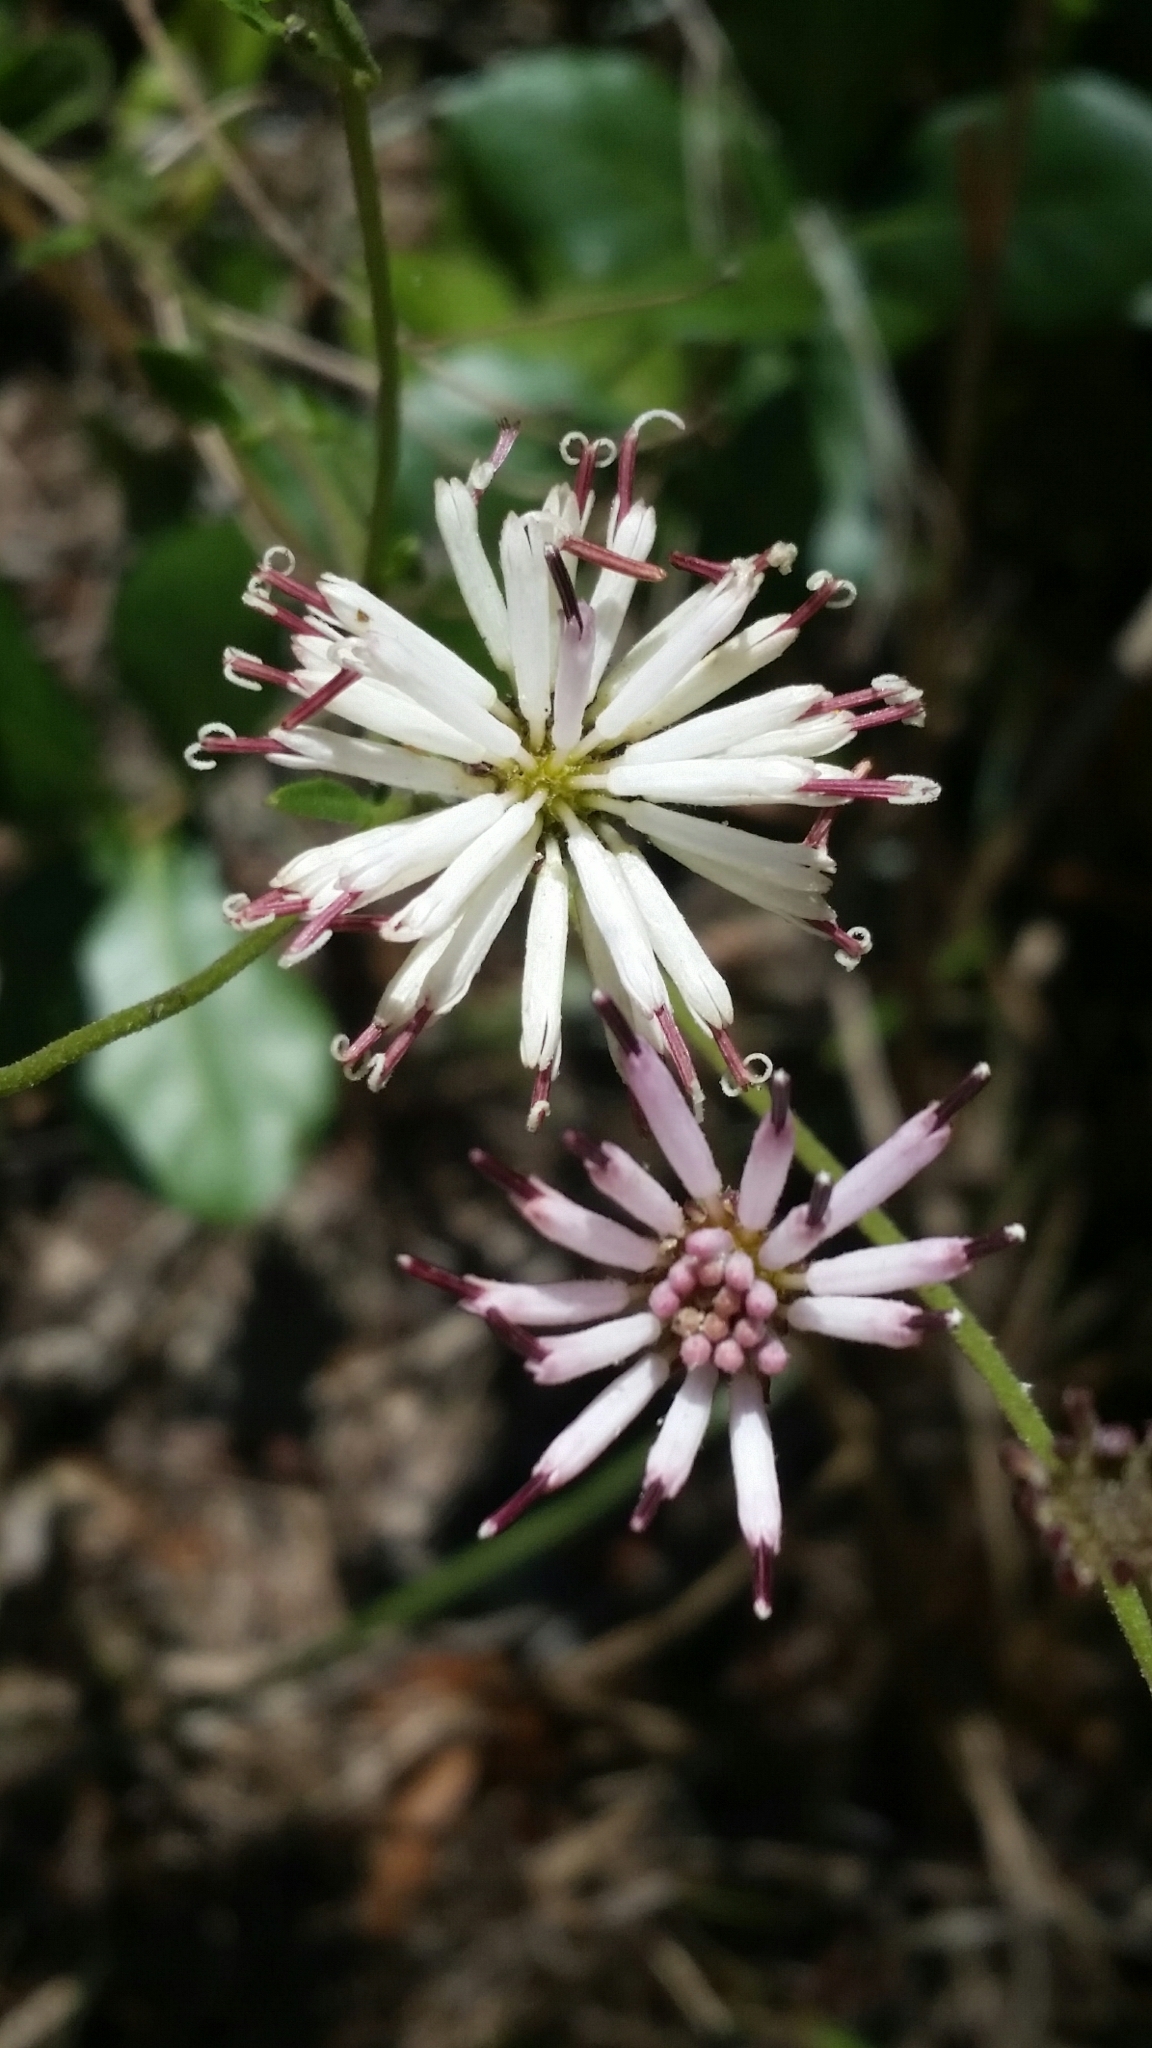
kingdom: Plantae
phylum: Tracheophyta
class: Magnoliopsida
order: Asterales
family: Asteraceae
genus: Palafoxia
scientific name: Palafoxia feayi
